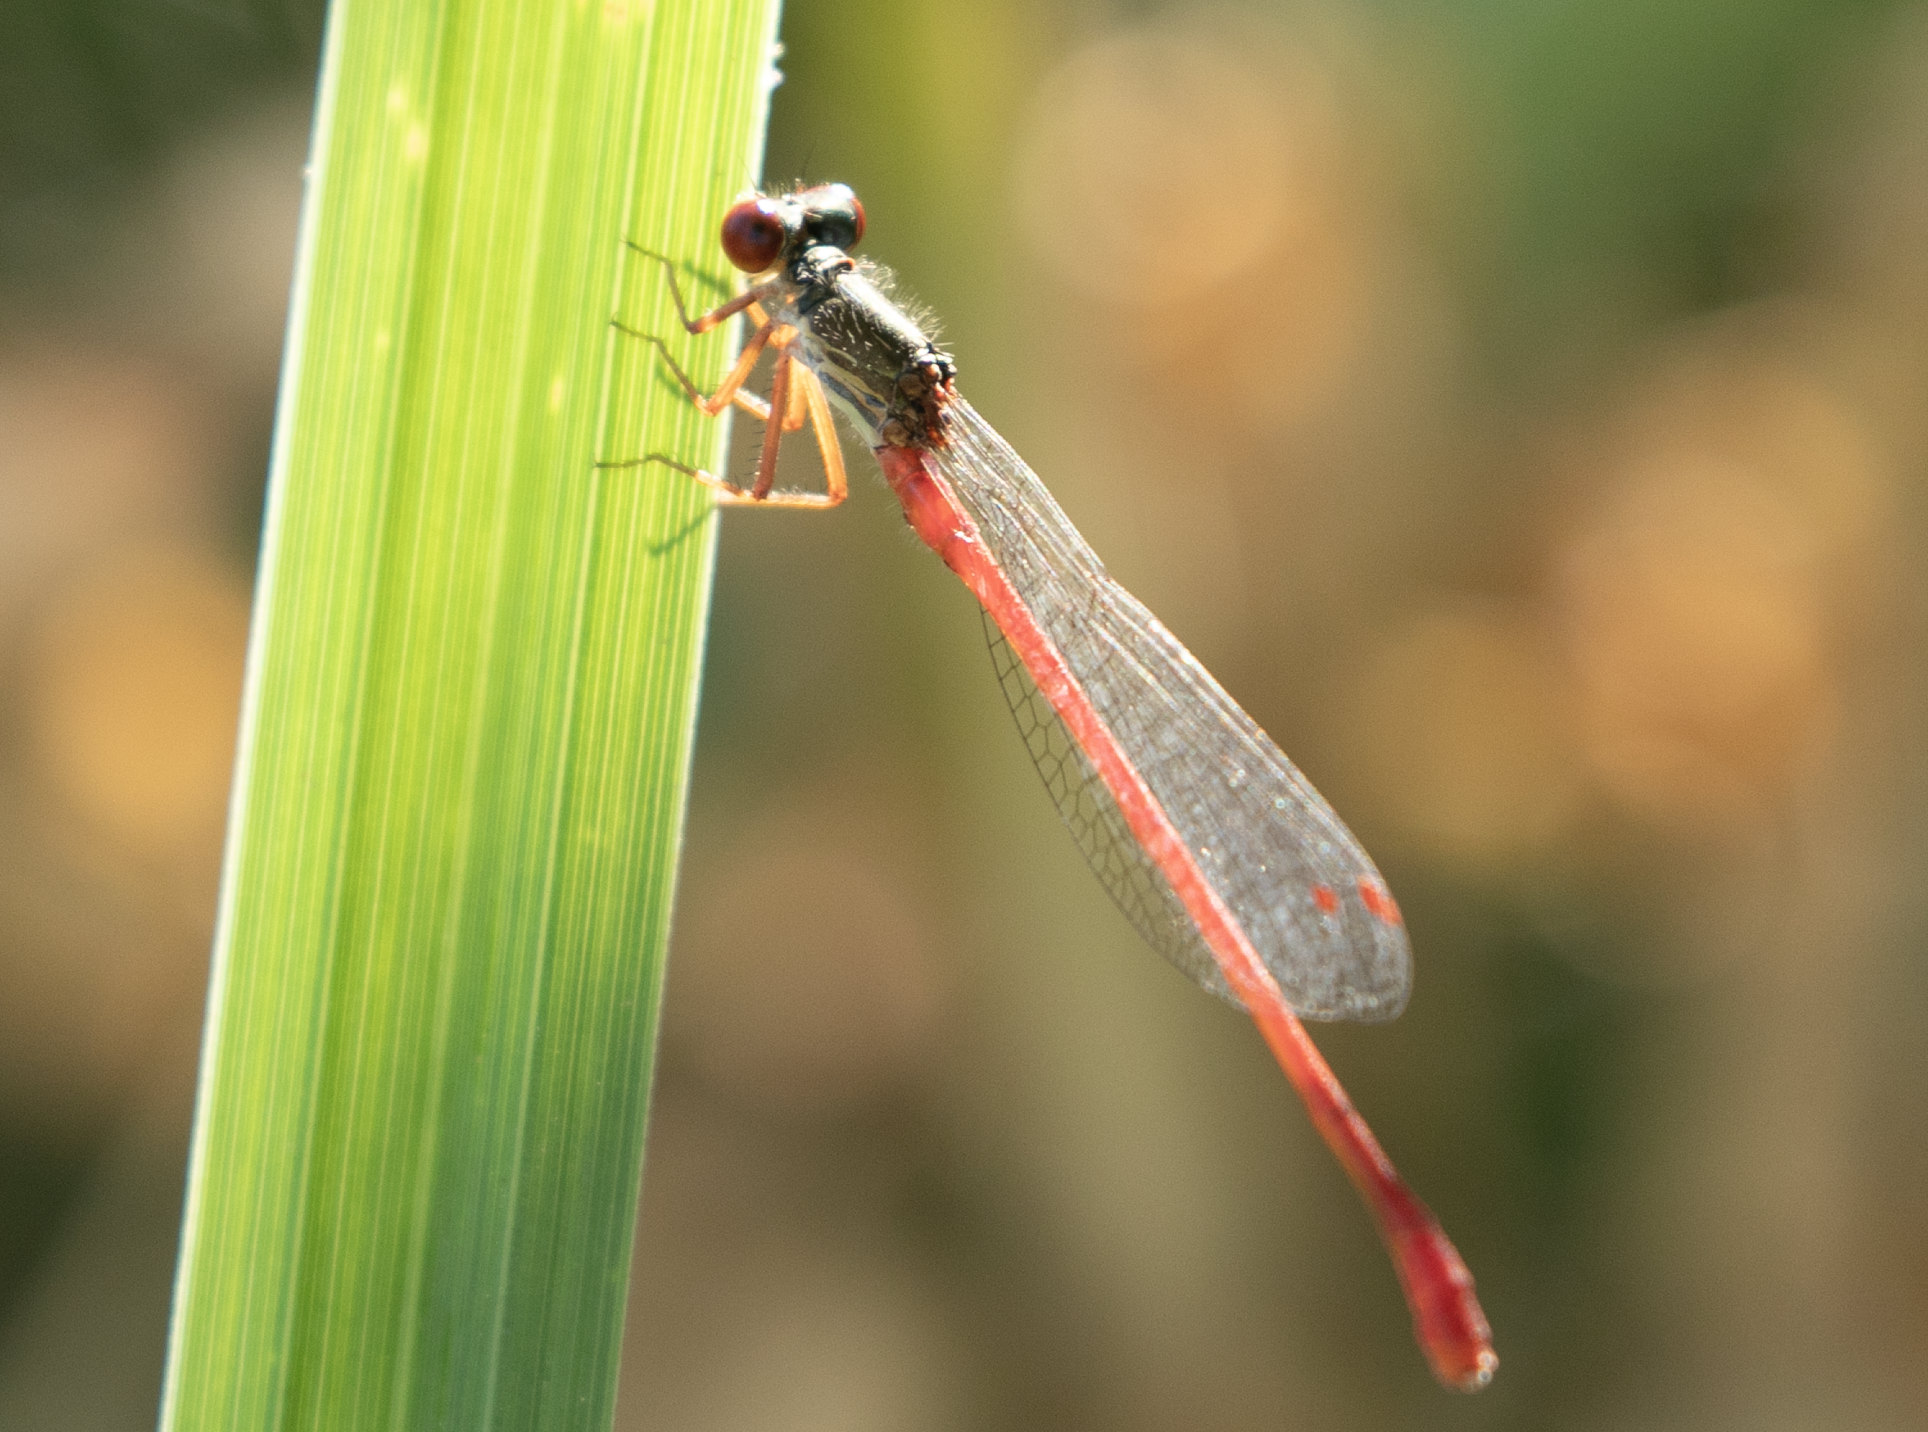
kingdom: Animalia
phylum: Arthropoda
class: Insecta
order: Odonata
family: Coenagrionidae
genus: Ceriagrion
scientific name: Ceriagrion tenellum
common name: Small red damselfly
